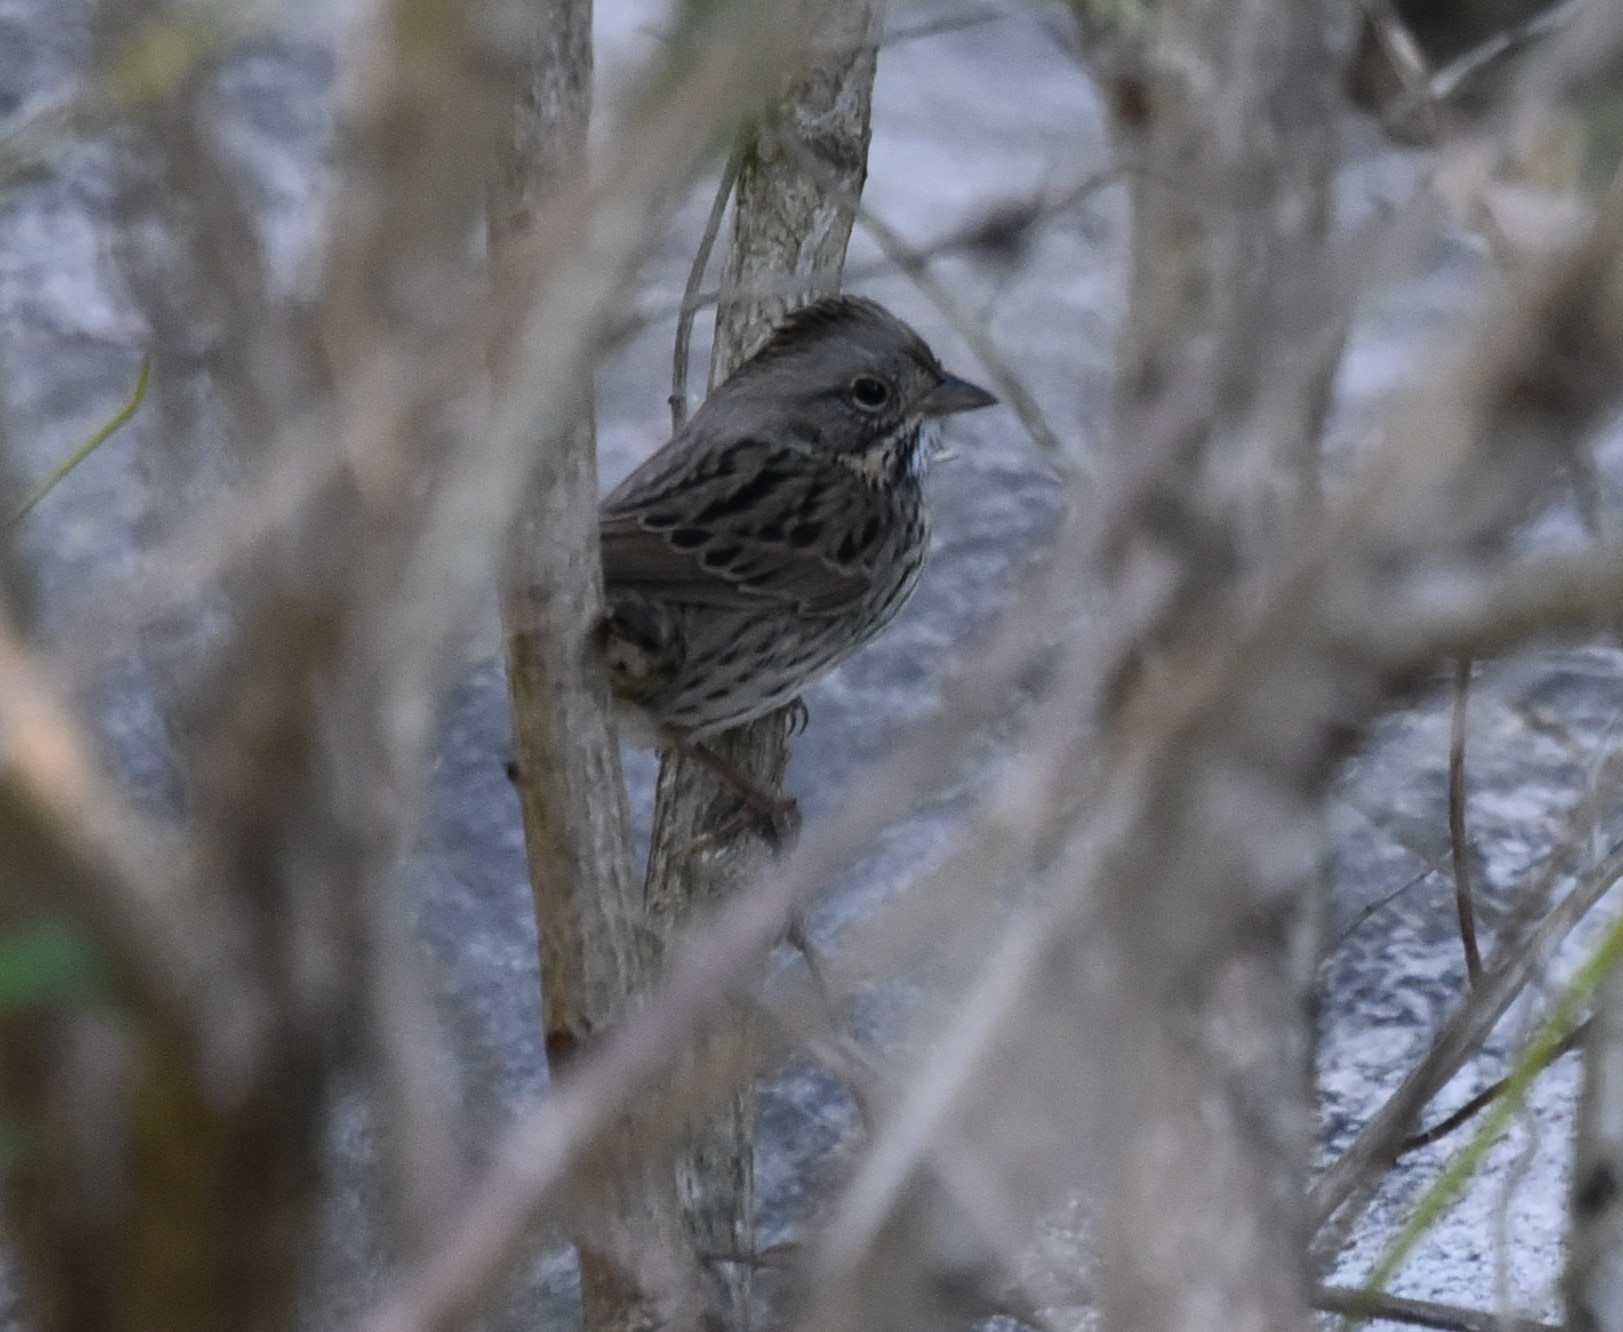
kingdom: Animalia
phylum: Chordata
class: Aves
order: Passeriformes
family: Passerellidae
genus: Melospiza
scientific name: Melospiza lincolnii
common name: Lincoln's sparrow
